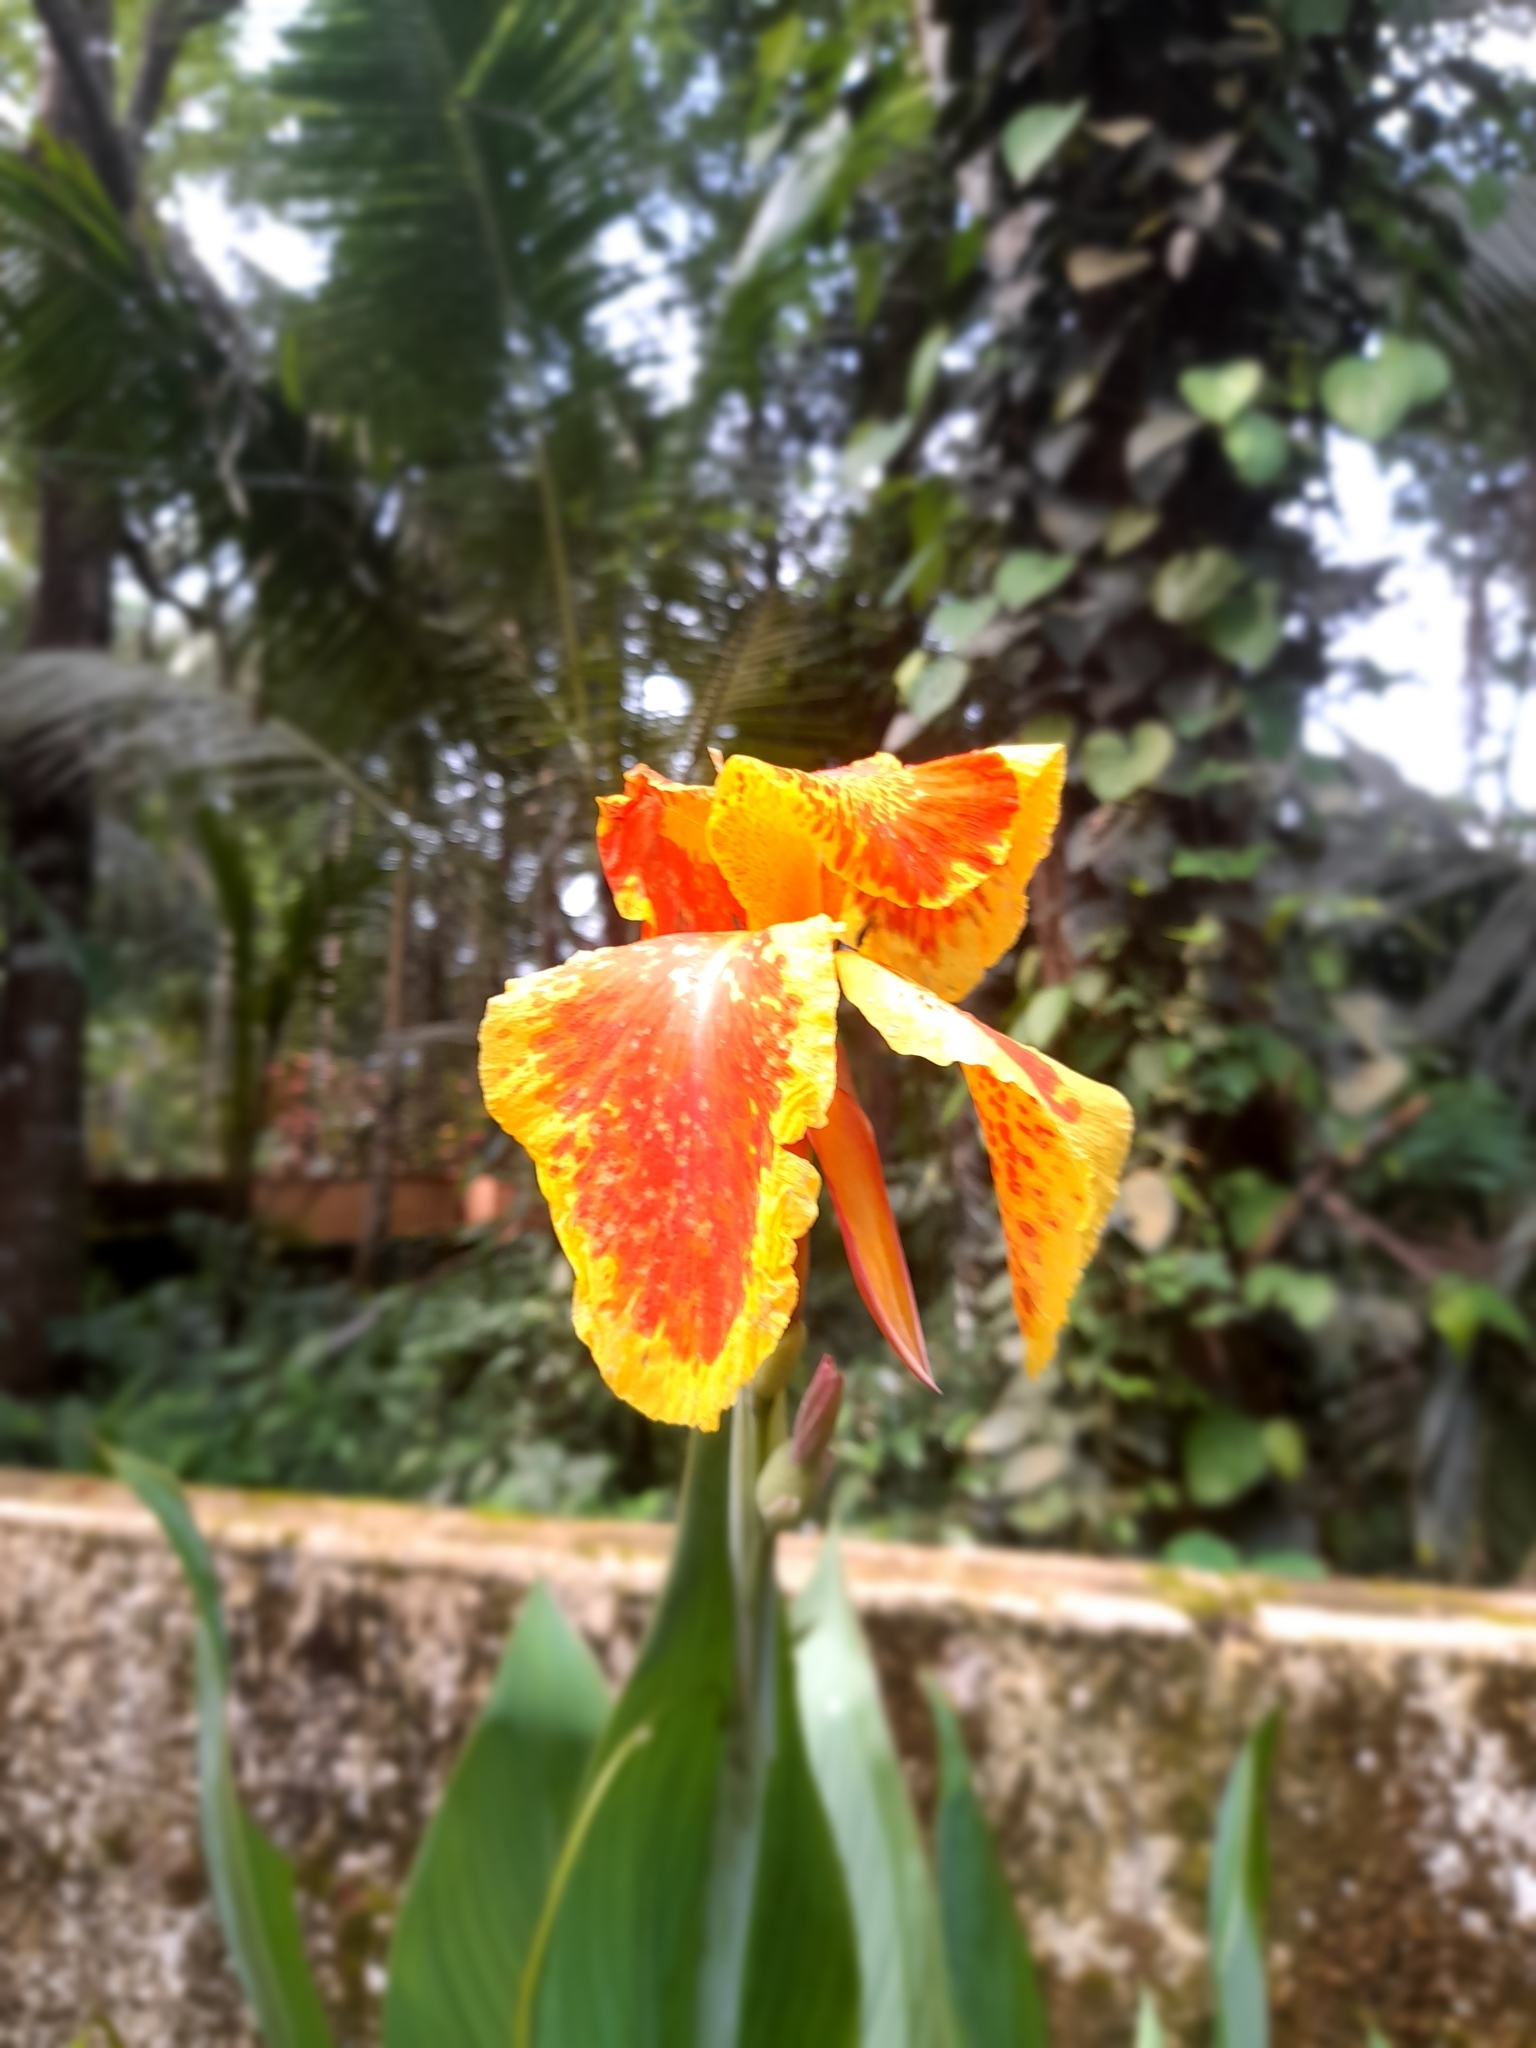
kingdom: Plantae
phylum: Tracheophyta
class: Liliopsida
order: Zingiberales
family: Cannaceae
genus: Canna
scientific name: Canna hybrida
